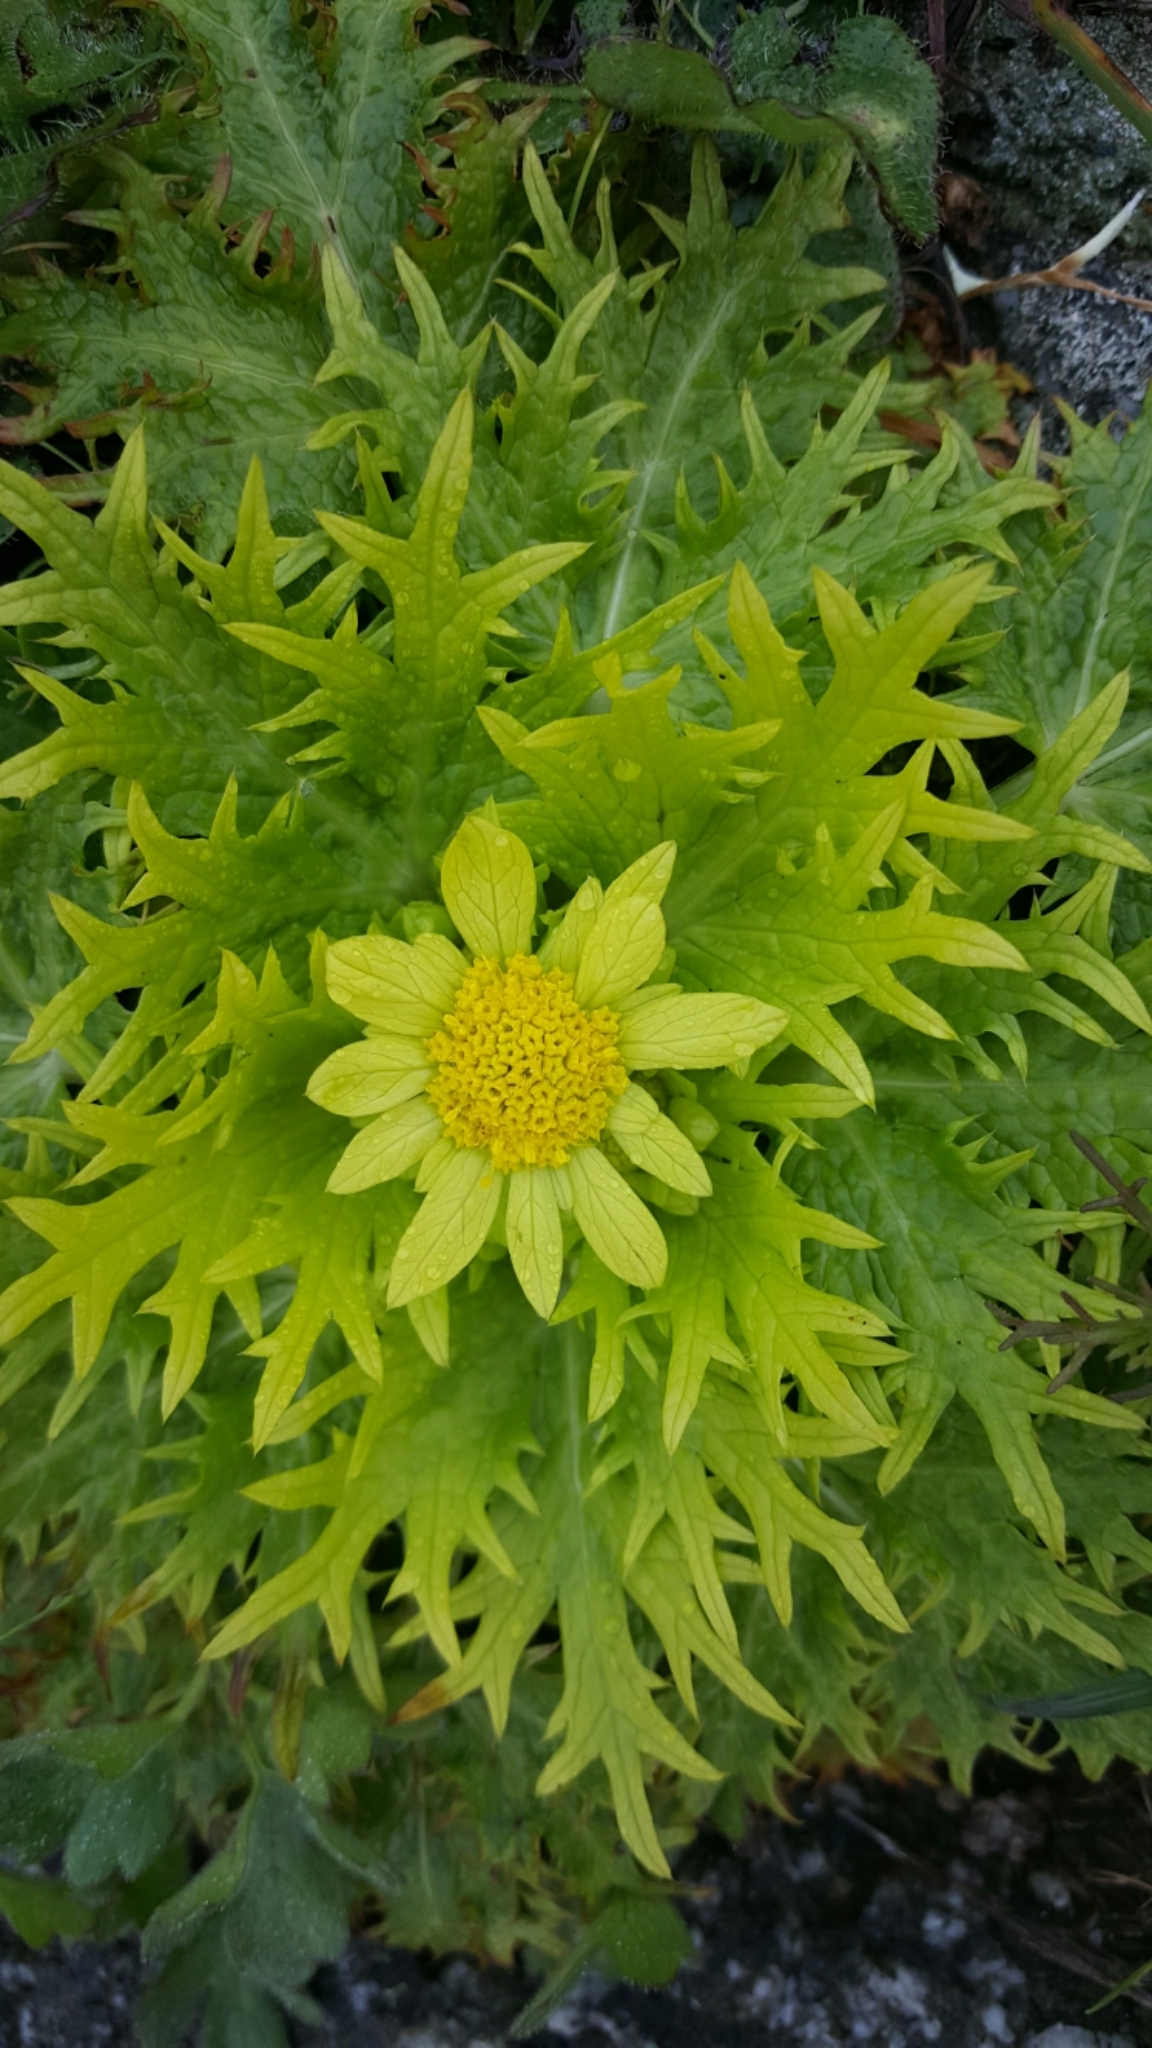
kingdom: Plantae
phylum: Tracheophyta
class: Magnoliopsida
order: Apiales
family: Apiaceae
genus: Sanicula
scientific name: Sanicula arctopoides
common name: Footsteps-of-spring
